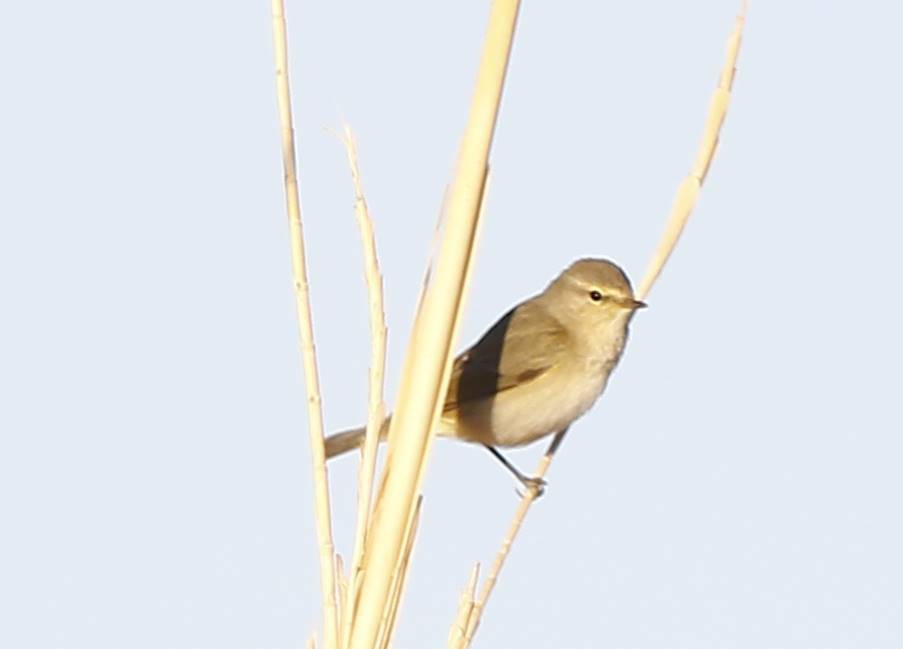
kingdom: Animalia
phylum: Chordata
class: Aves
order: Passeriformes
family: Phylloscopidae
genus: Phylloscopus
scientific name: Phylloscopus collybita
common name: Common chiffchaff
